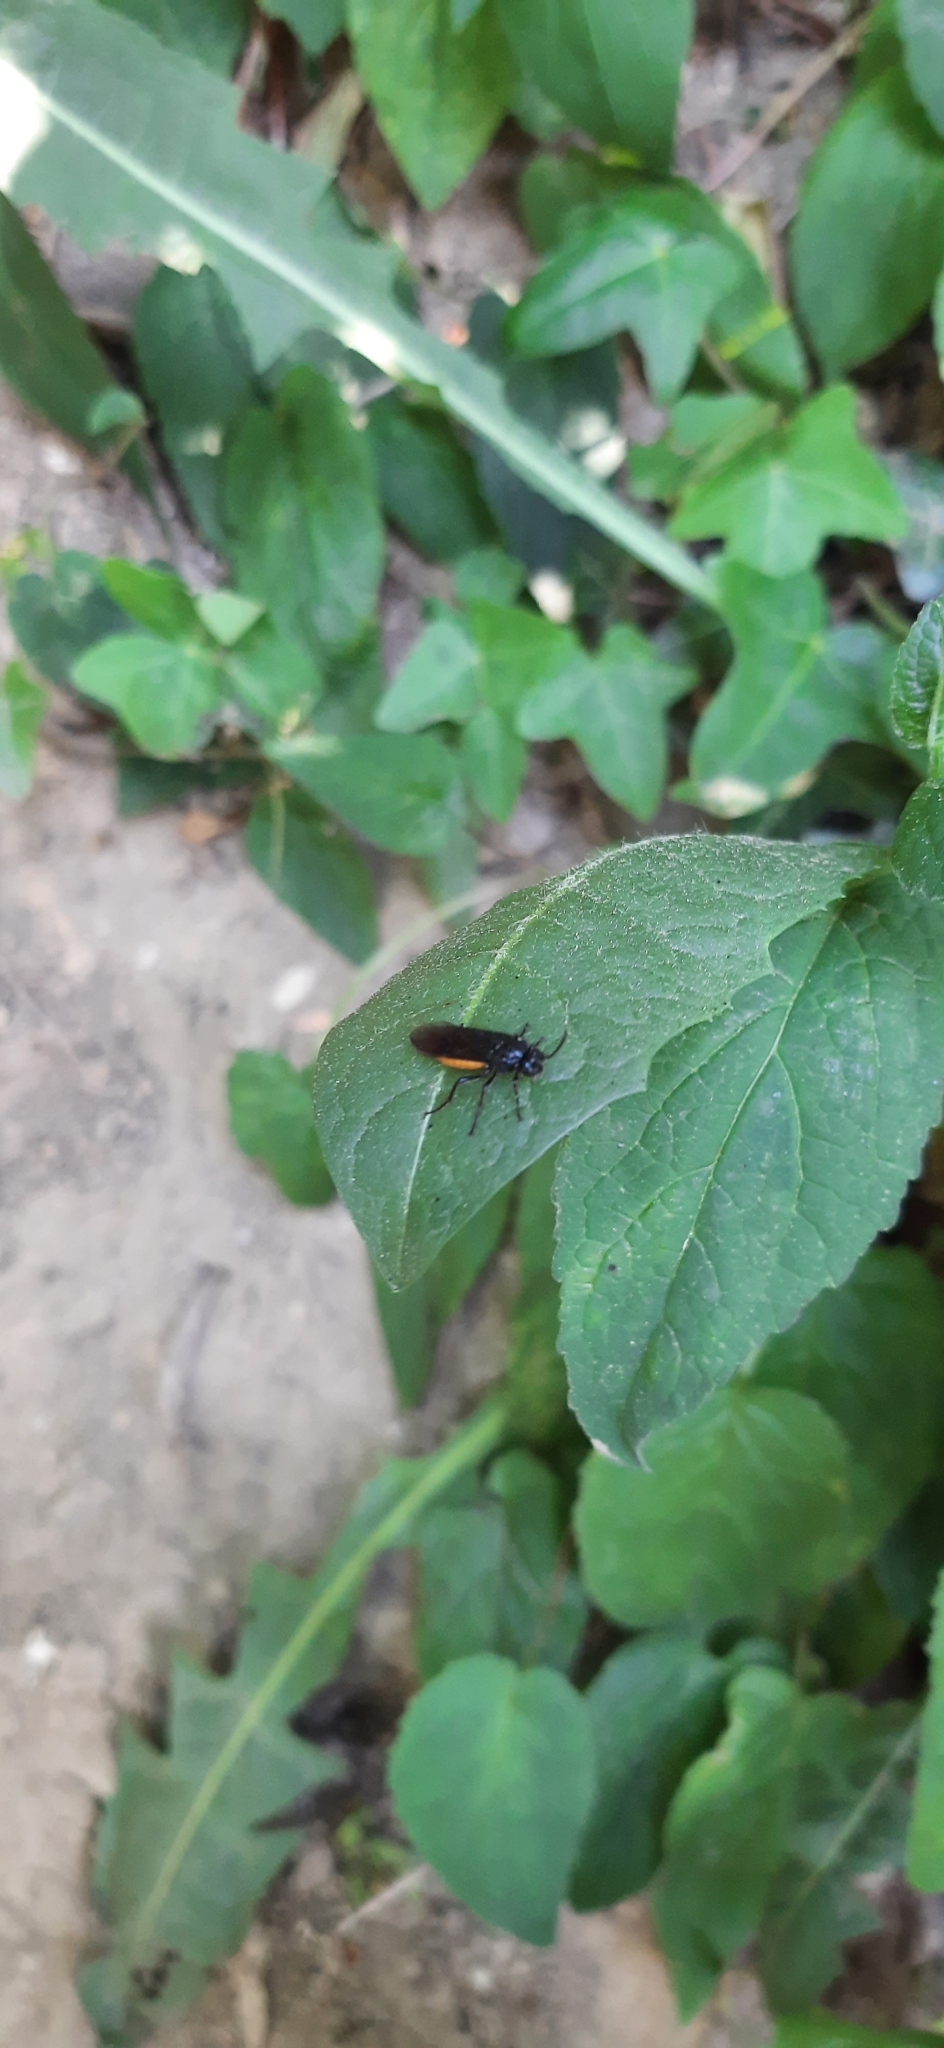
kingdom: Animalia
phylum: Arthropoda
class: Insecta
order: Hymenoptera
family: Argidae
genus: Arge
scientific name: Arge pagana
